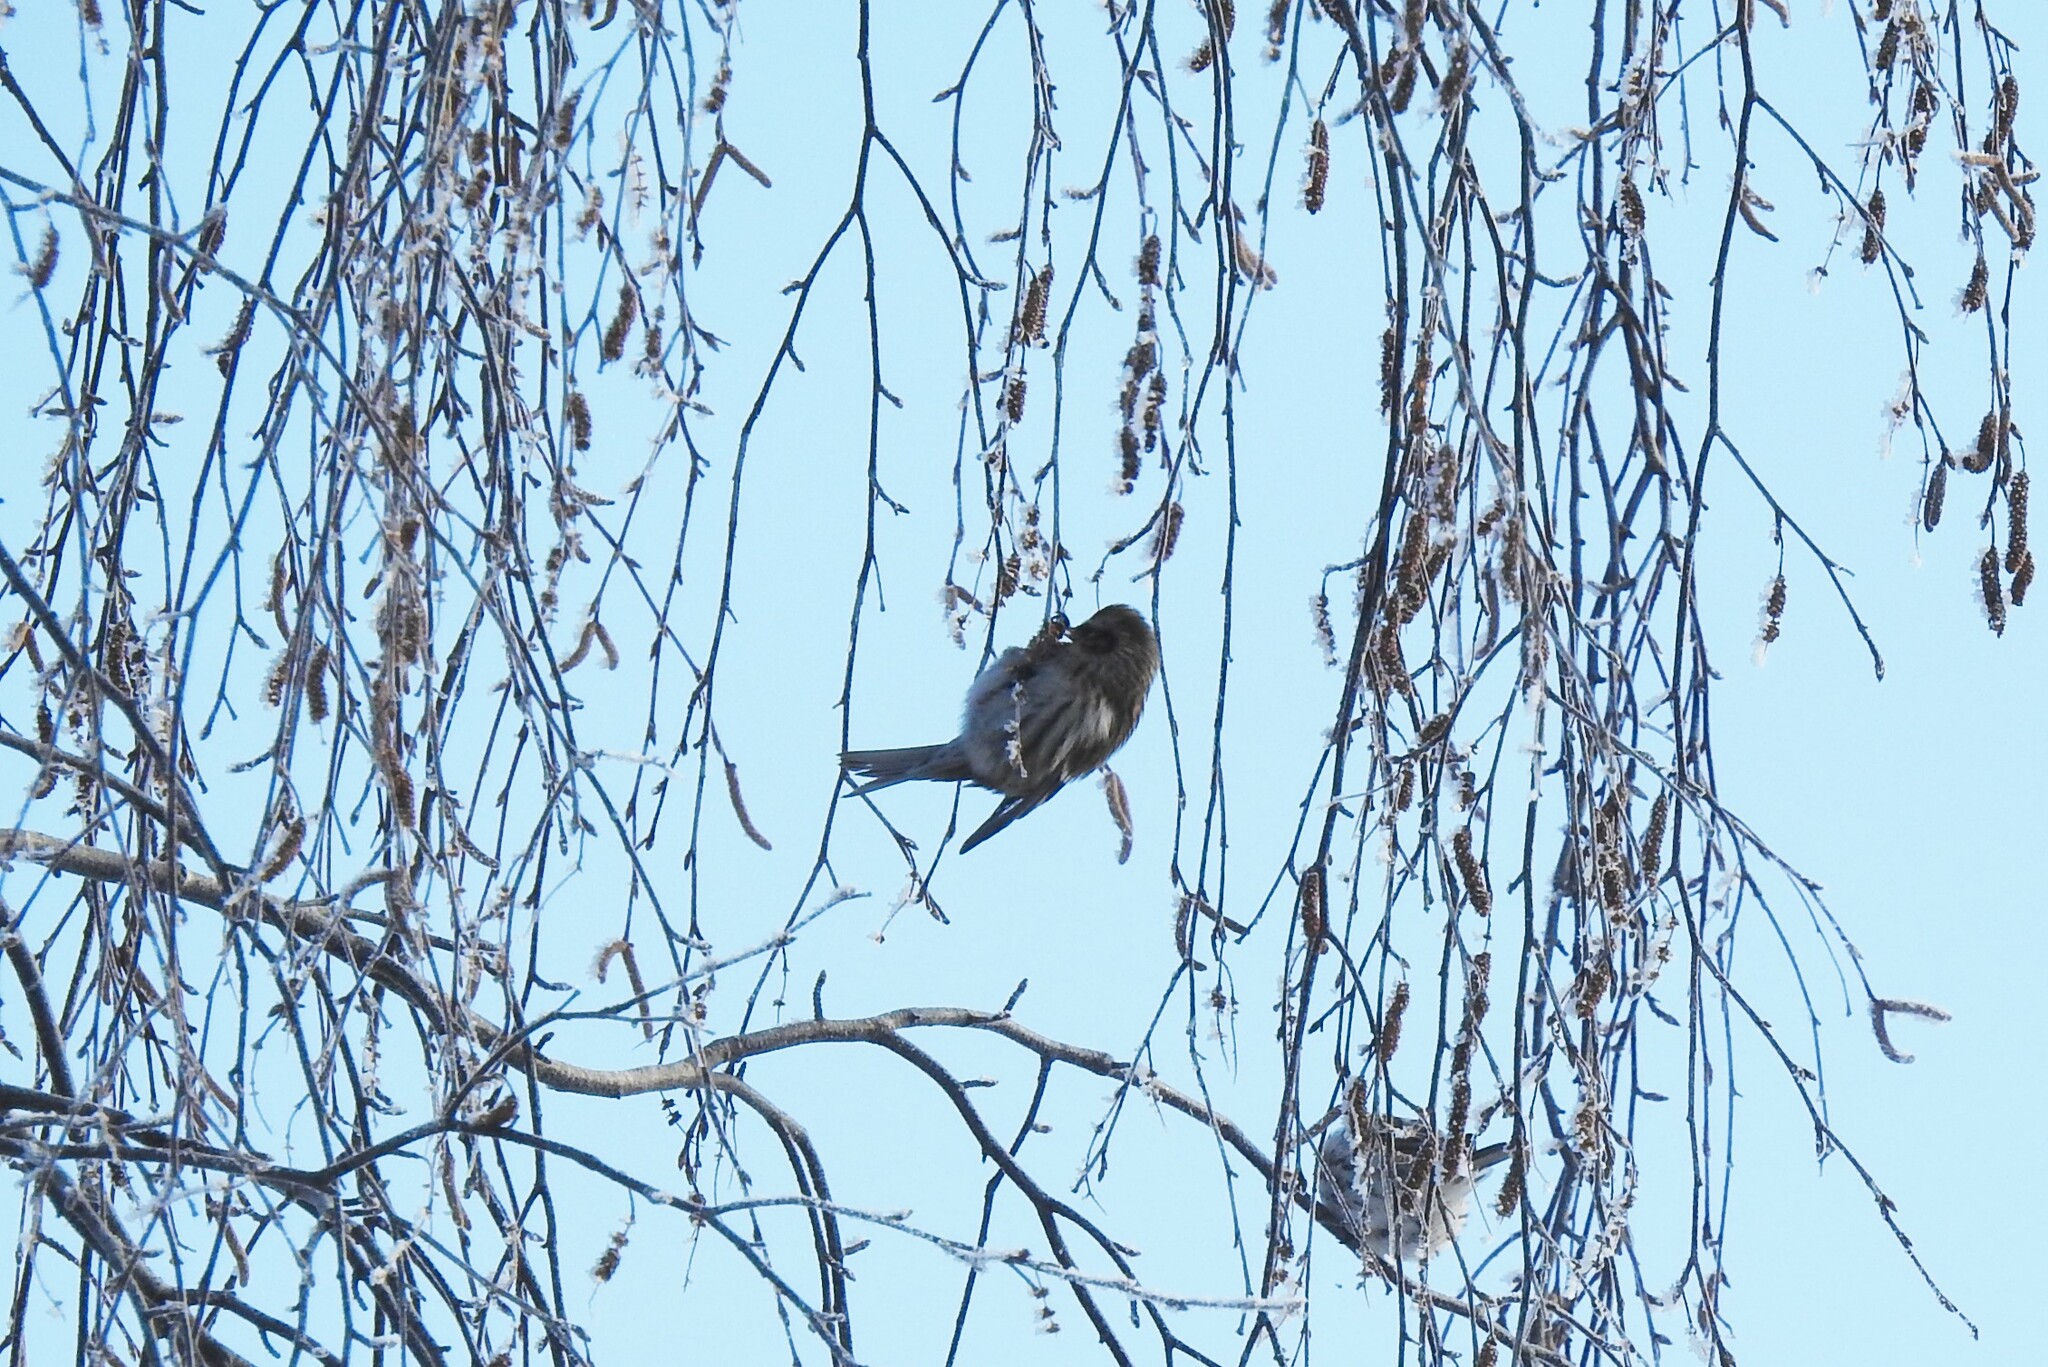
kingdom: Animalia
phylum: Chordata
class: Aves
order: Passeriformes
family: Fringillidae
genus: Acanthis
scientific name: Acanthis flammea
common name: Common redpoll
